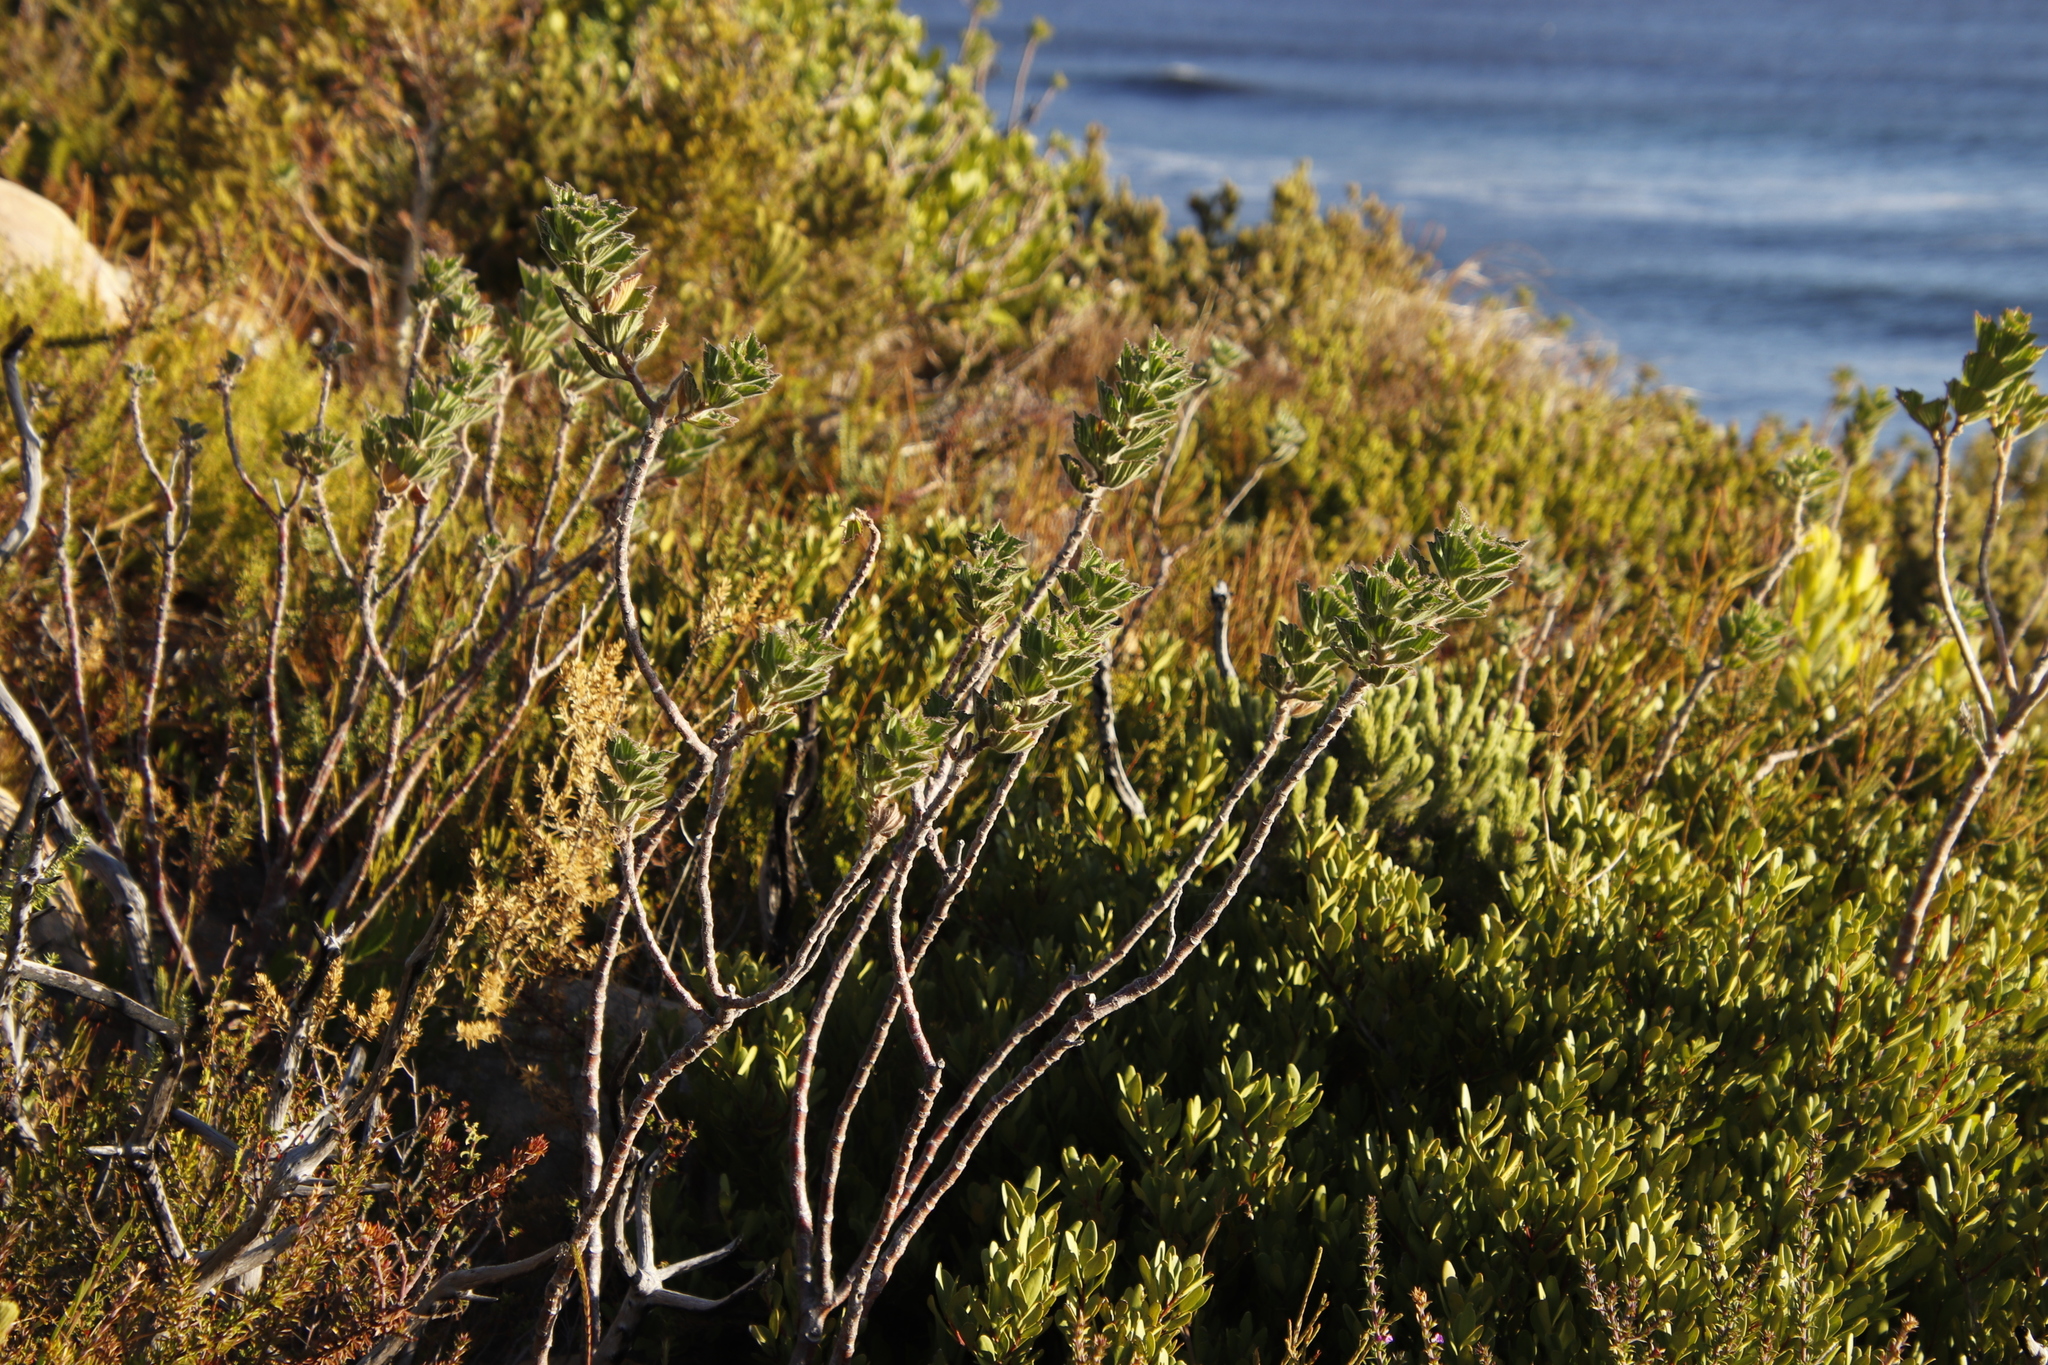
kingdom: Plantae
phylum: Tracheophyta
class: Magnoliopsida
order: Geraniales
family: Geraniaceae
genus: Pelargonium
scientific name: Pelargonium cucullatum
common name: Tree pelargonium
